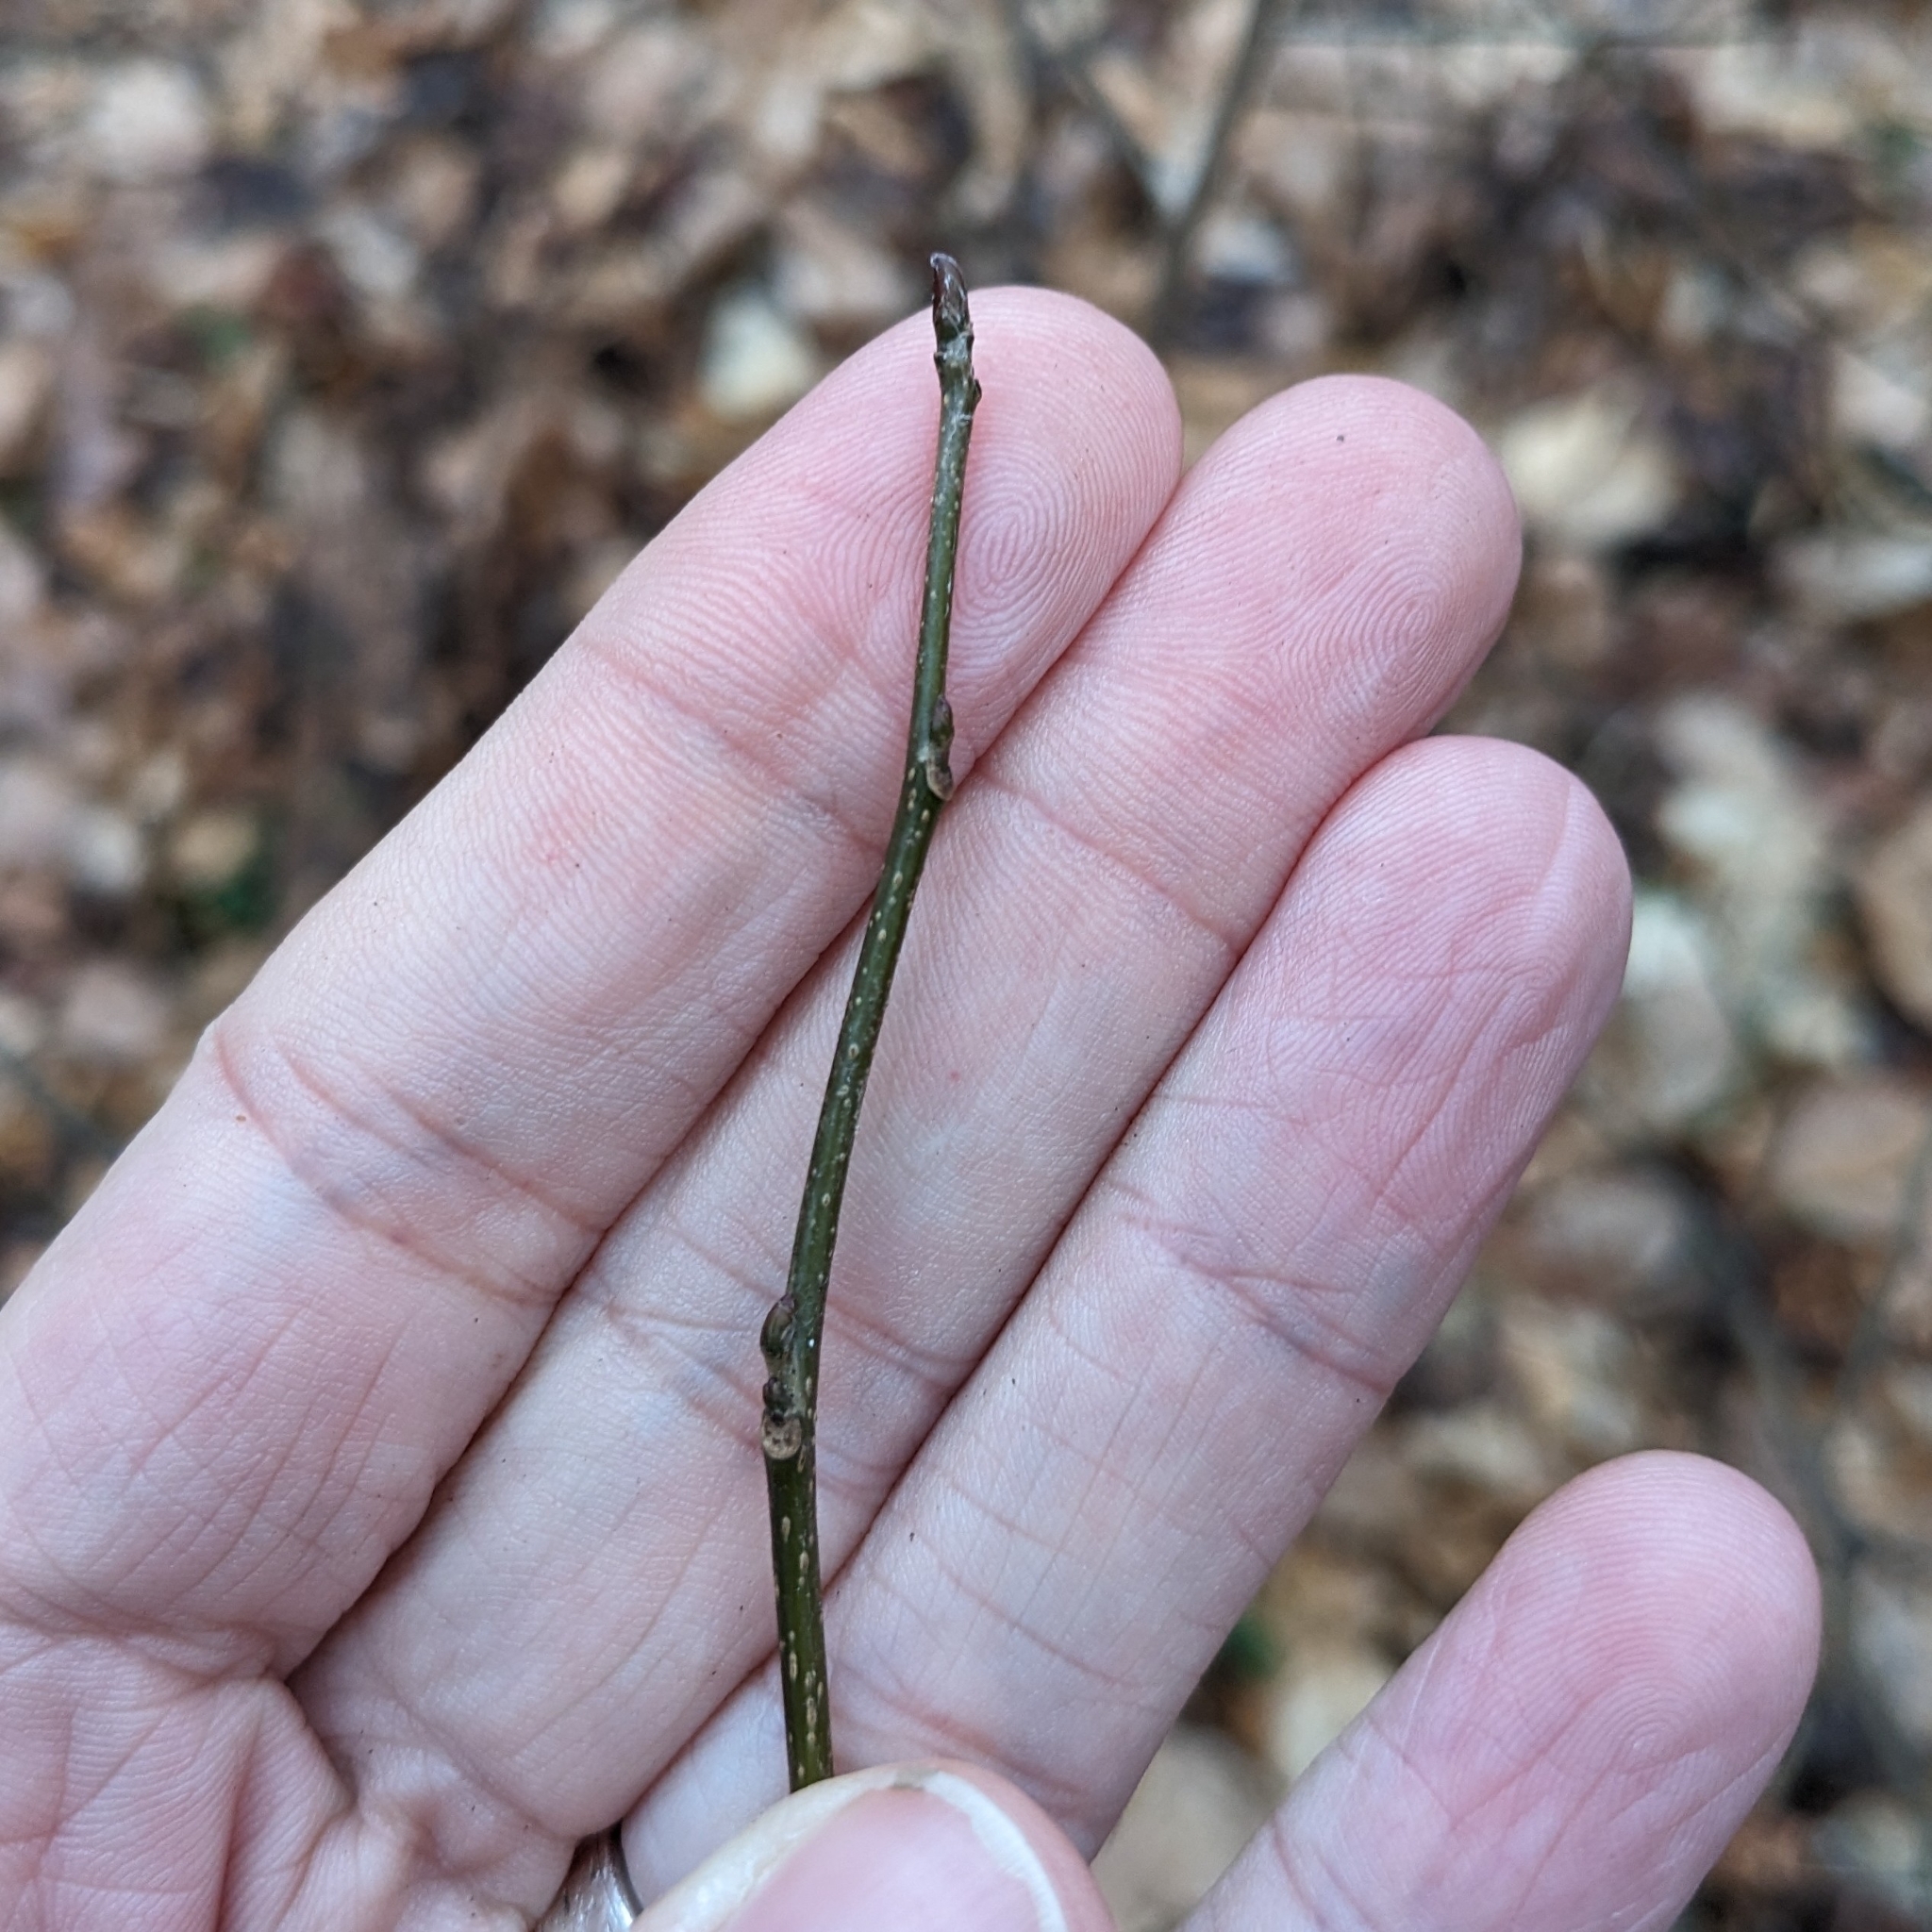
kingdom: Plantae
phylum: Tracheophyta
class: Magnoliopsida
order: Laurales
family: Lauraceae
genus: Lindera
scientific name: Lindera benzoin
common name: Spicebush
